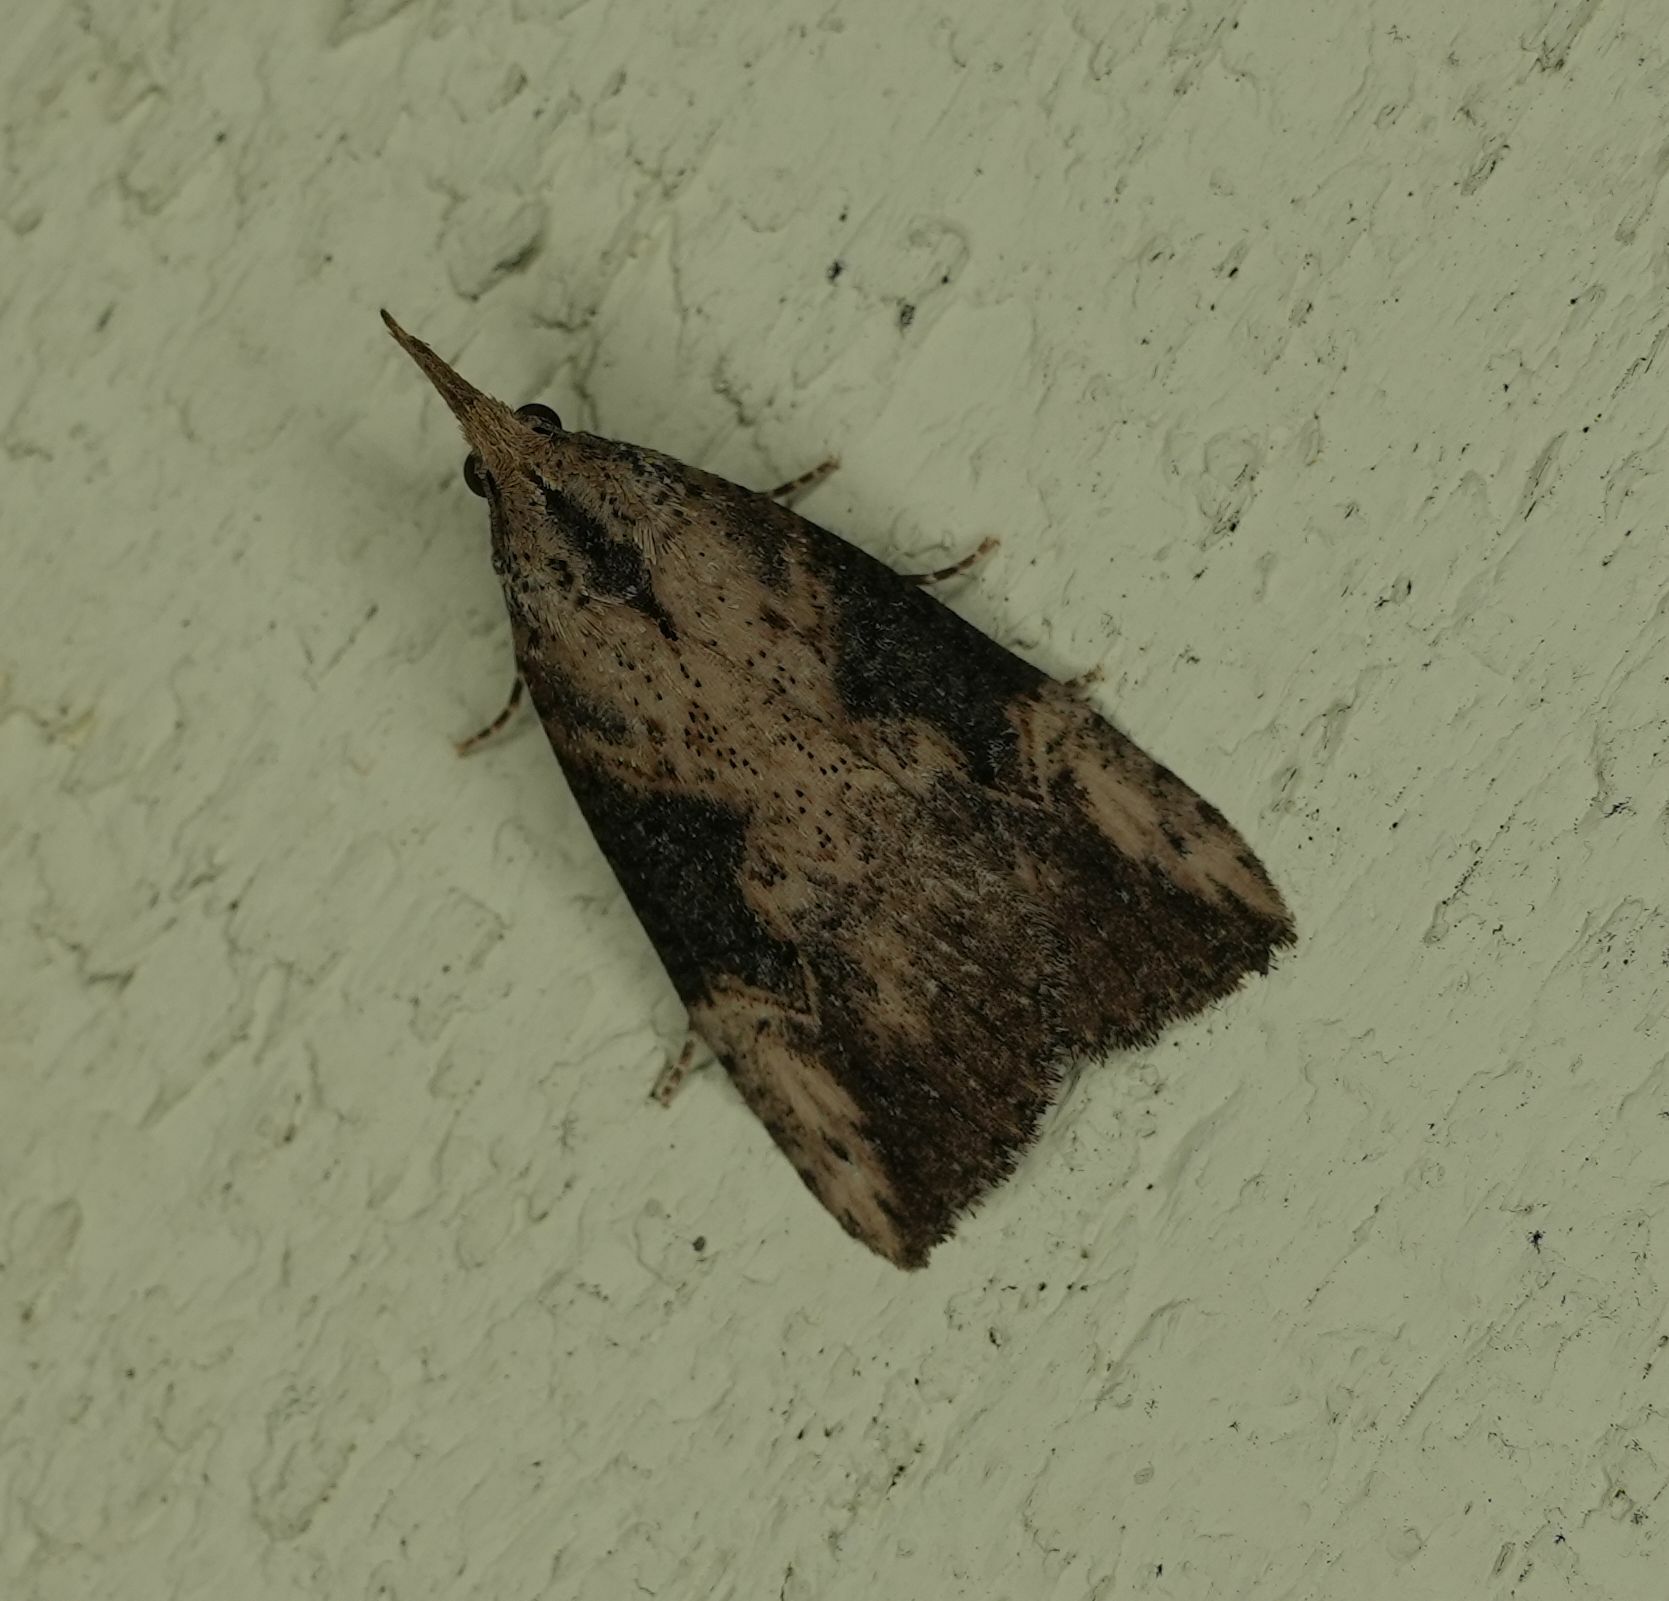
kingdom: Animalia
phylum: Arthropoda
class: Insecta
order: Lepidoptera
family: Erebidae
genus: Hypena
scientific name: Hypena humuli
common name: Hop vine snout
